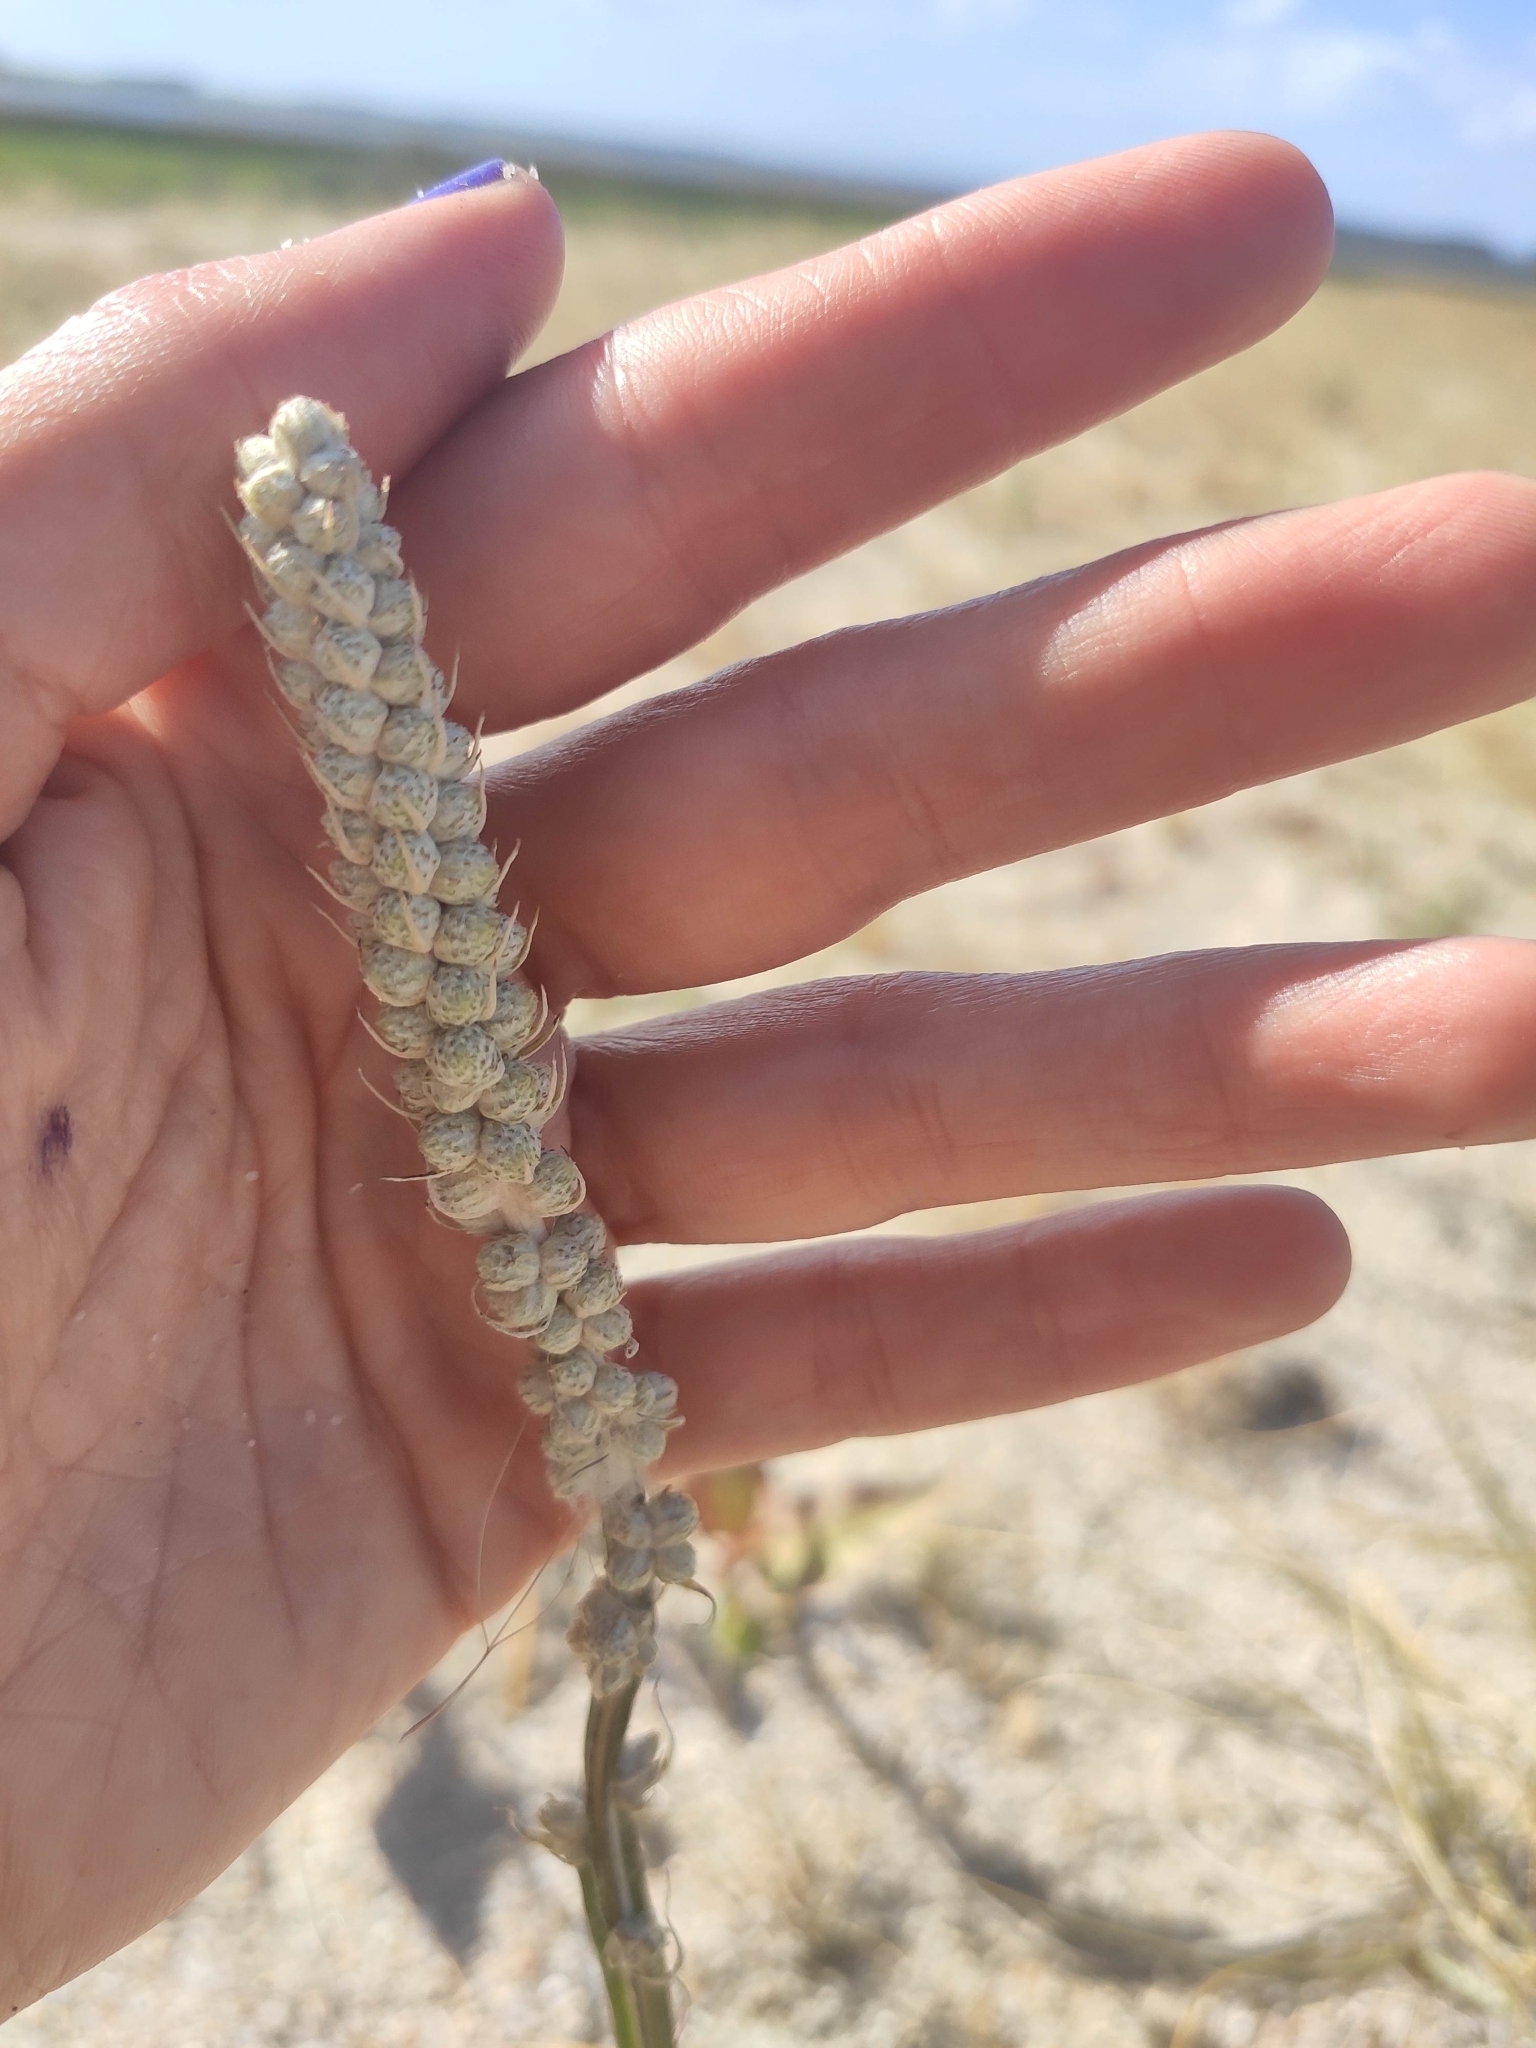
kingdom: Plantae
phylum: Tracheophyta
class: Magnoliopsida
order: Asterales
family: Asteraceae
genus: Pterocaulon
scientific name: Pterocaulon lorentzii
